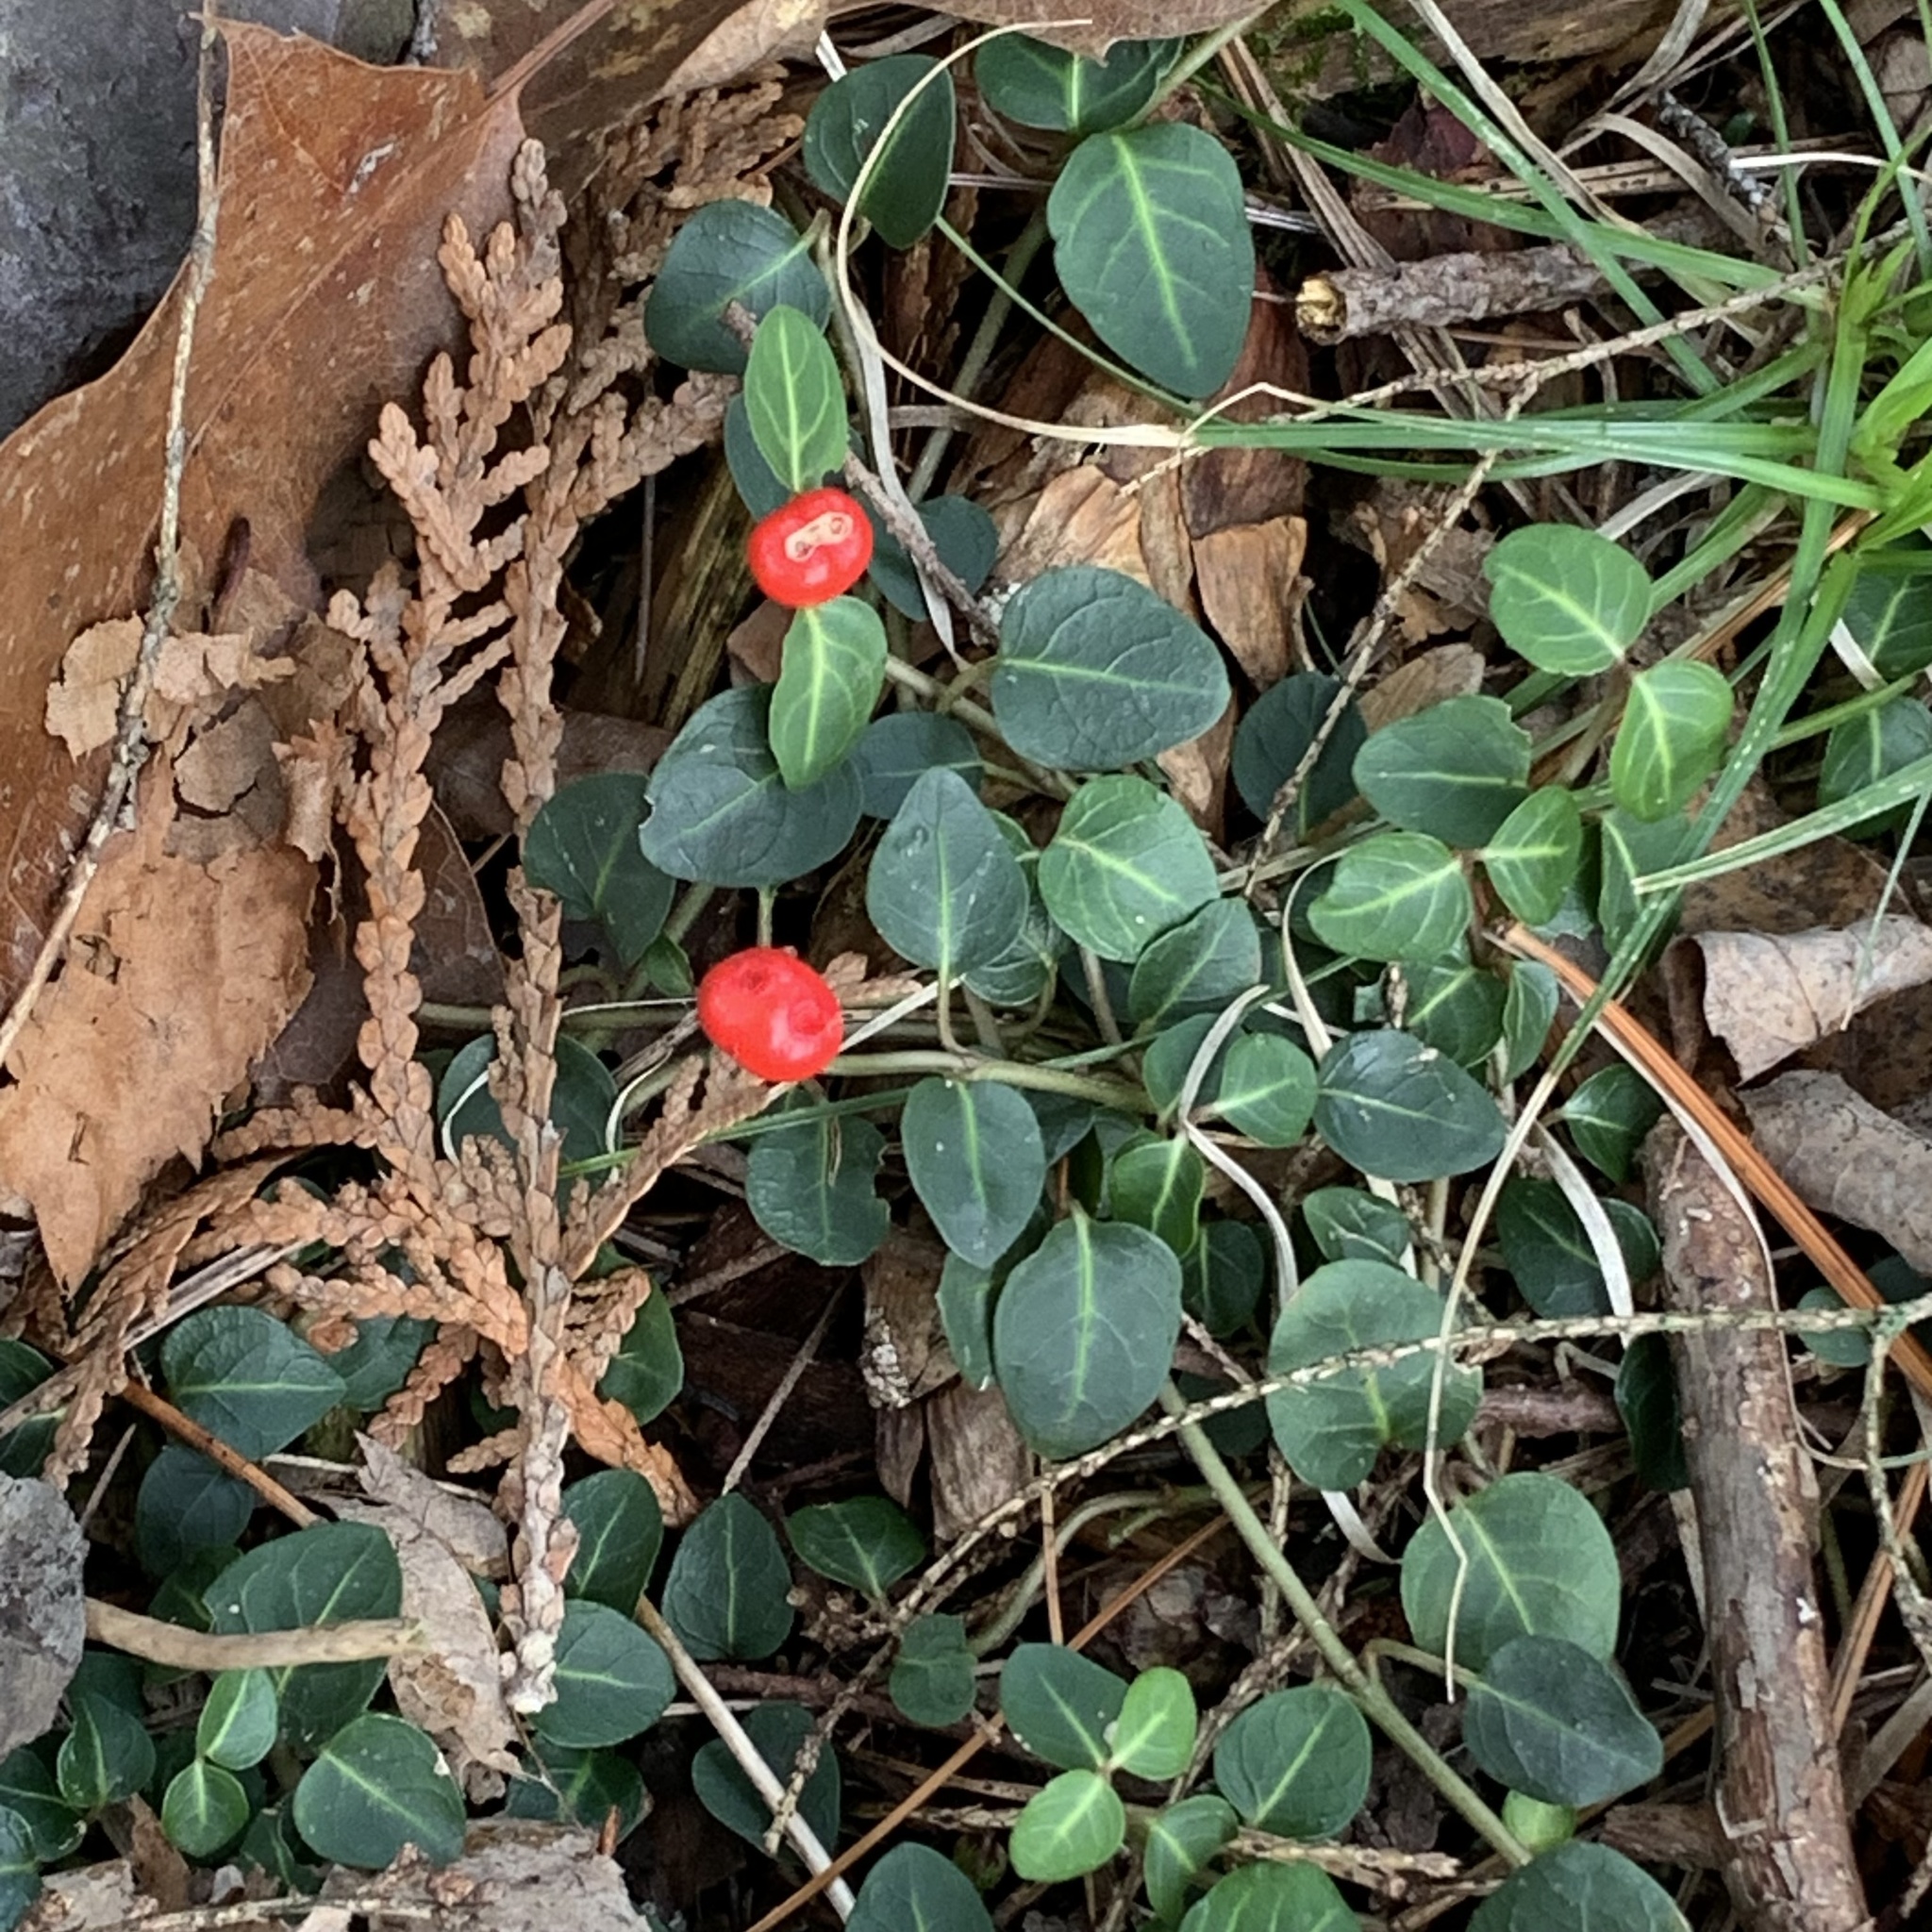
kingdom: Plantae
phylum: Tracheophyta
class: Magnoliopsida
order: Gentianales
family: Rubiaceae
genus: Mitchella
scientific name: Mitchella repens
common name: Partridge-berry
